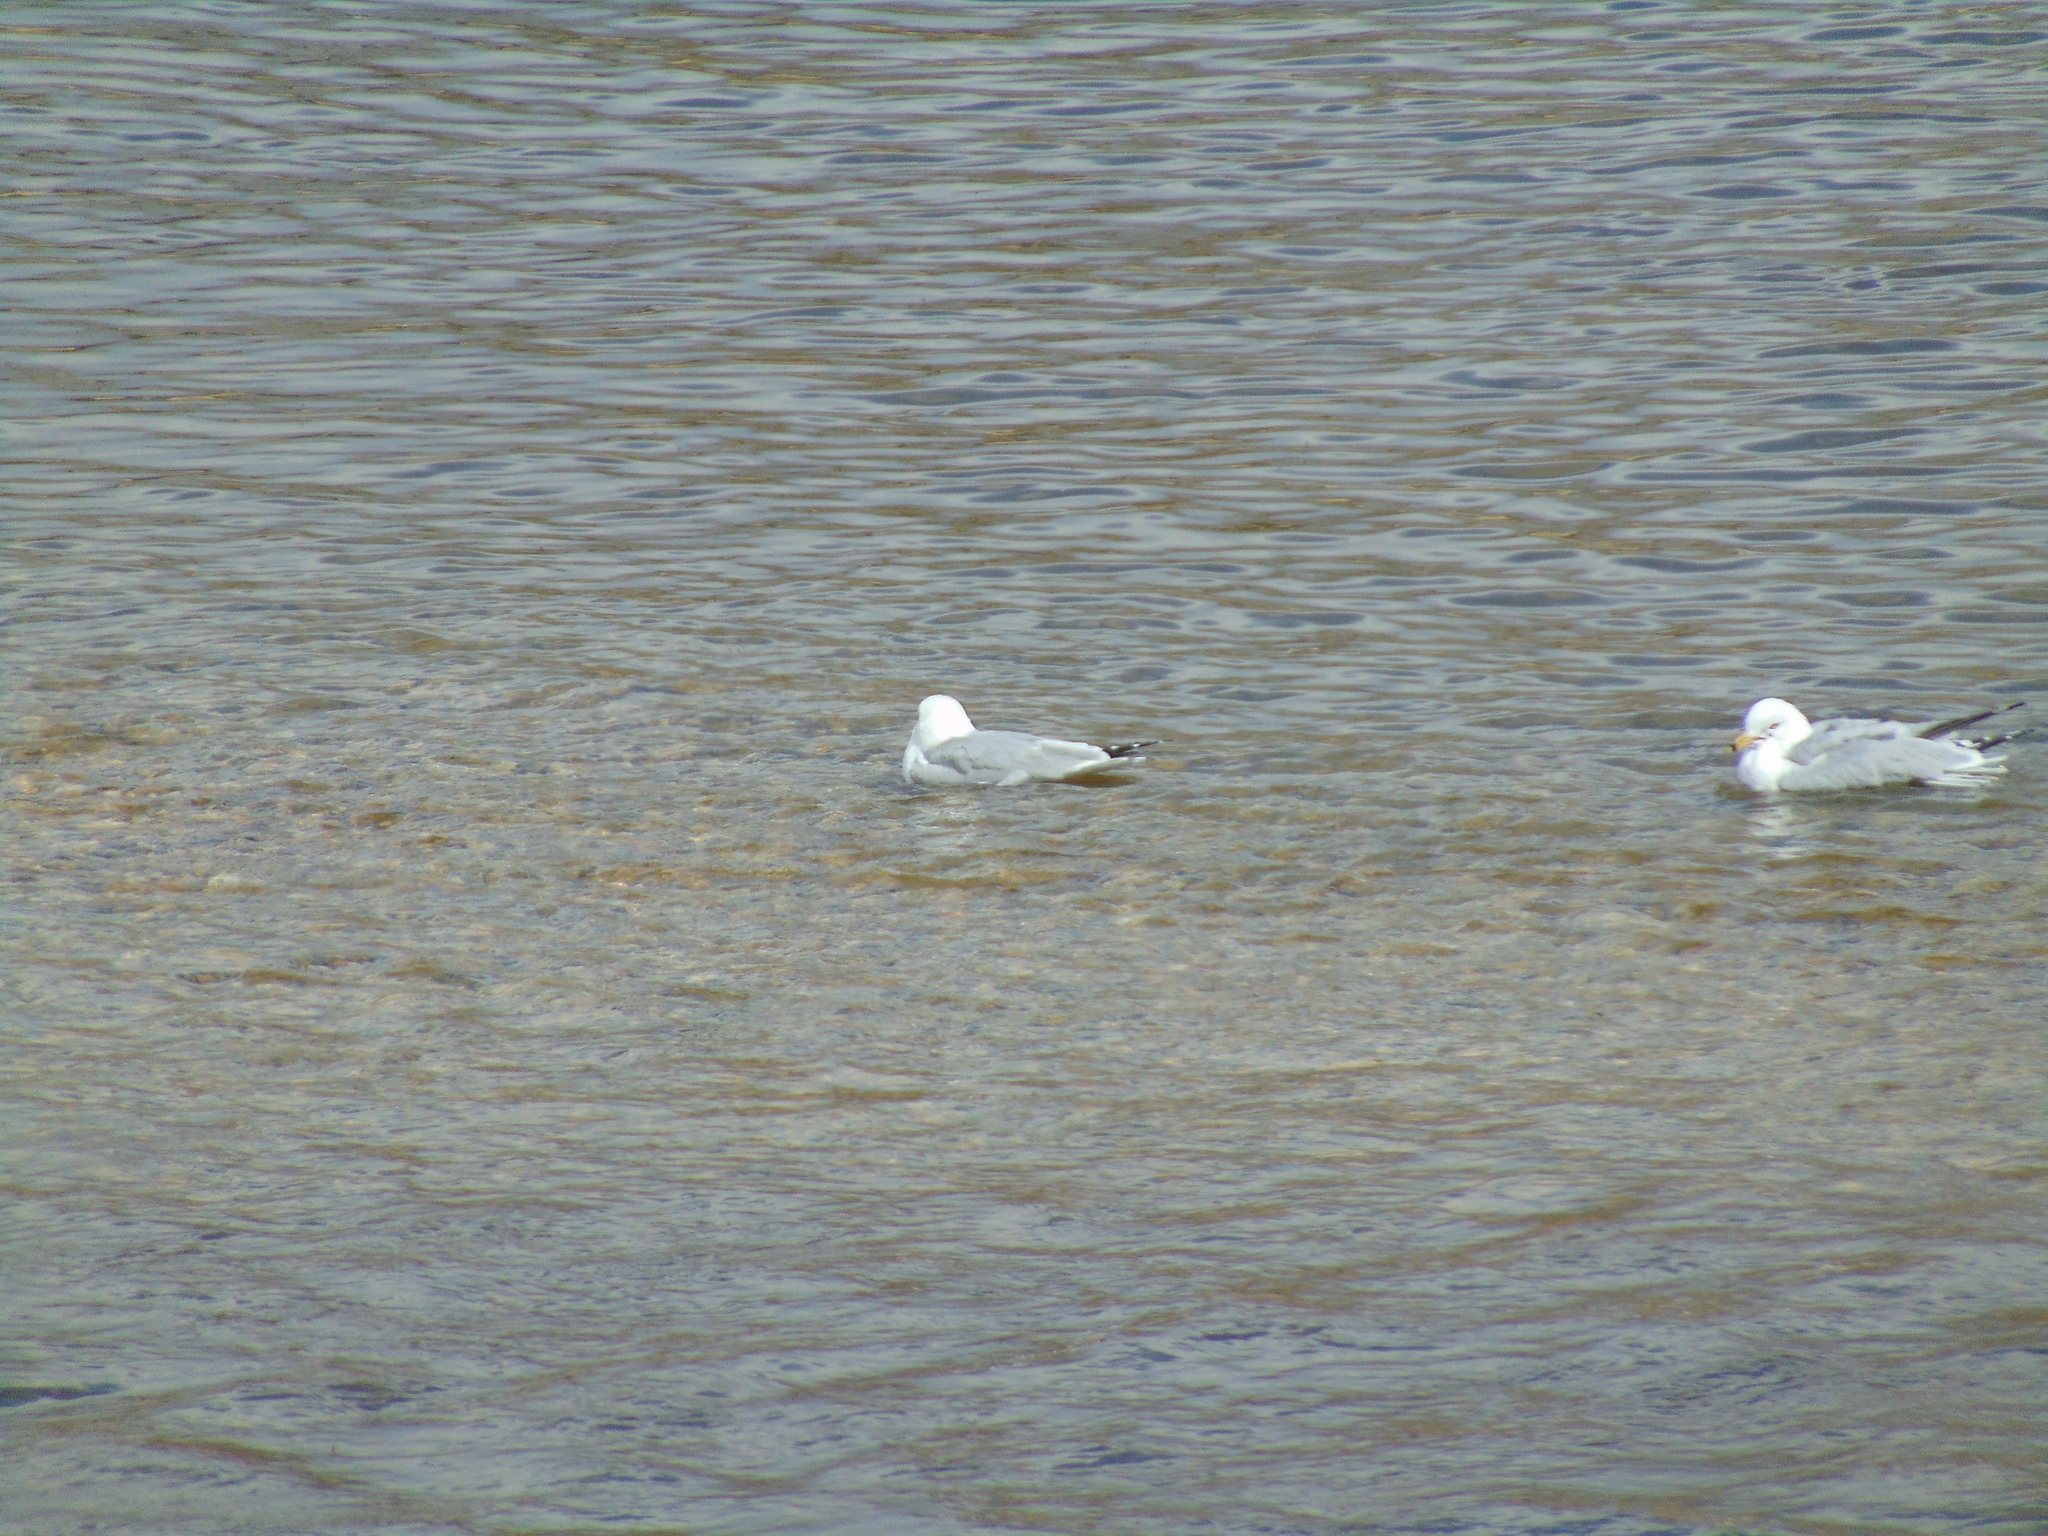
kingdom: Animalia
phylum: Chordata
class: Aves
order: Charadriiformes
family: Laridae
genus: Larus
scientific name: Larus delawarensis
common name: Ring-billed gull
